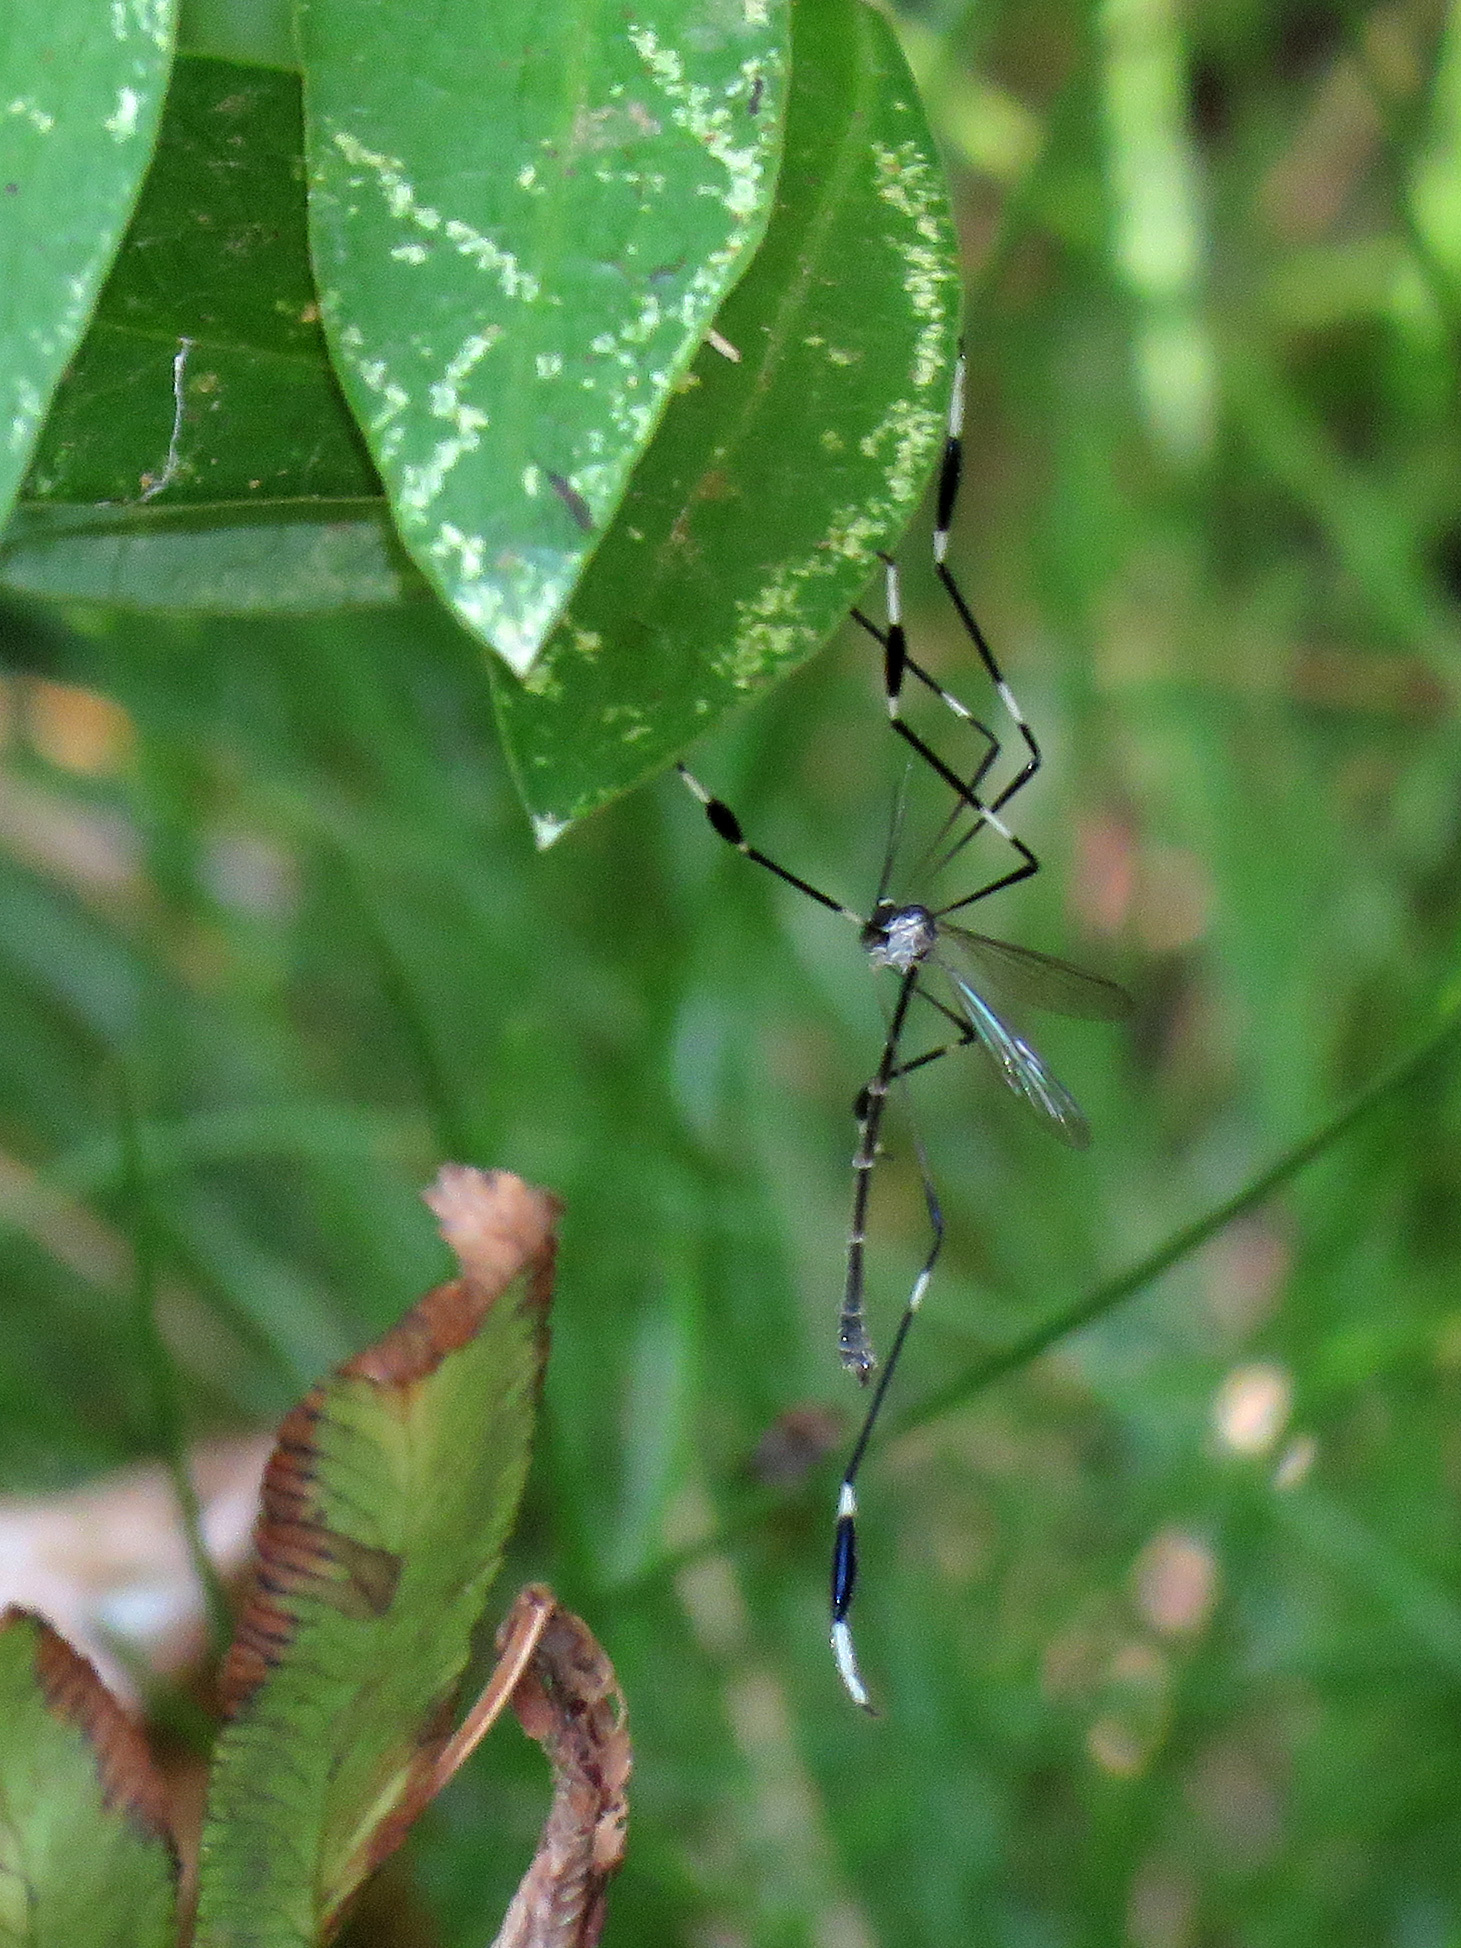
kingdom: Animalia
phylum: Arthropoda
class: Insecta
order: Diptera
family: Ptychopteridae
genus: Bittacomorpha
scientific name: Bittacomorpha clavipes
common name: Eastern phantom crane fly
